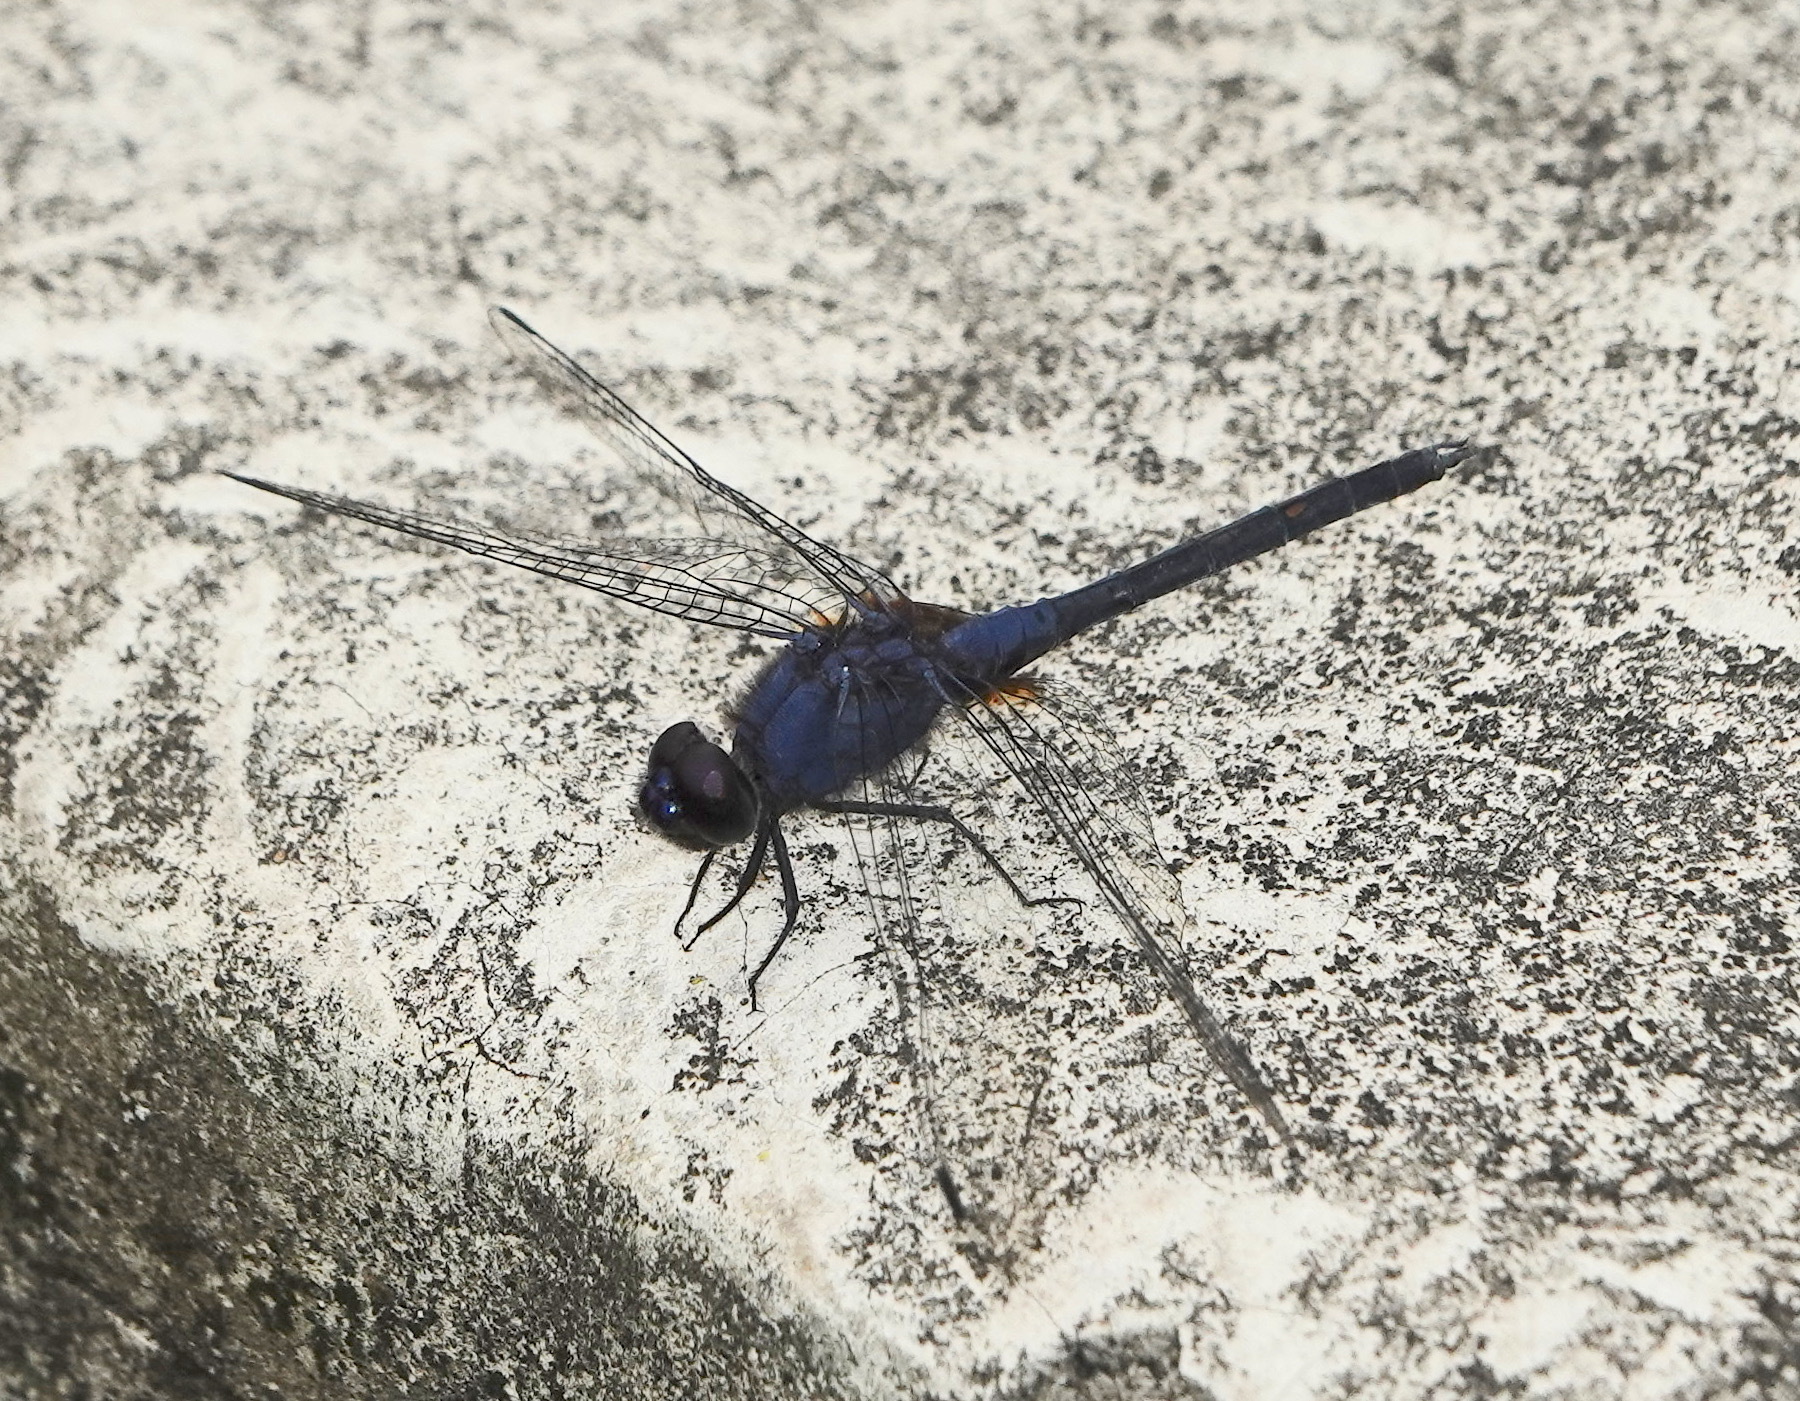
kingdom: Animalia
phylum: Arthropoda
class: Insecta
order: Odonata
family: Libellulidae
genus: Trithemis
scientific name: Trithemis festiva
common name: Indigo dropwing
